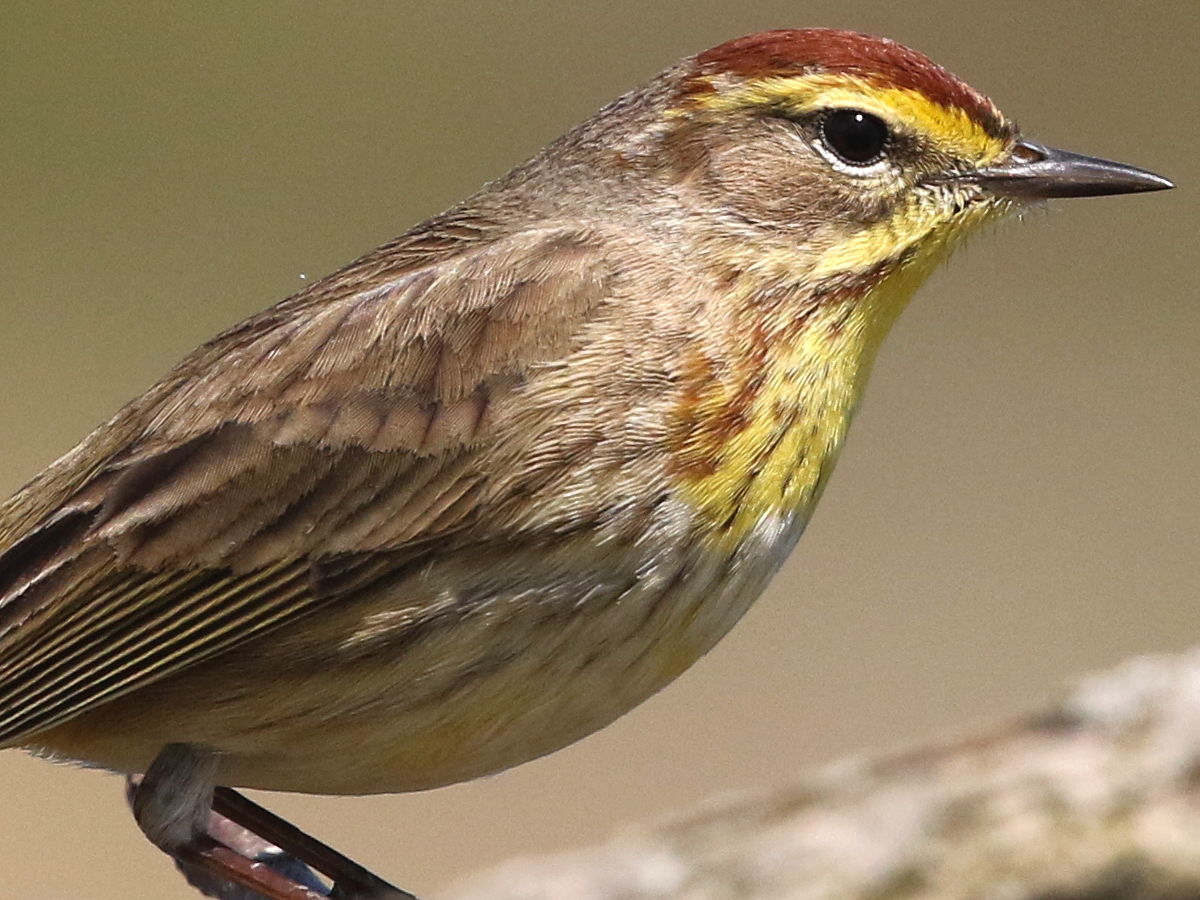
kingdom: Animalia
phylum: Chordata
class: Aves
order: Passeriformes
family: Parulidae
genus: Setophaga
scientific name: Setophaga palmarum
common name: Palm warbler
